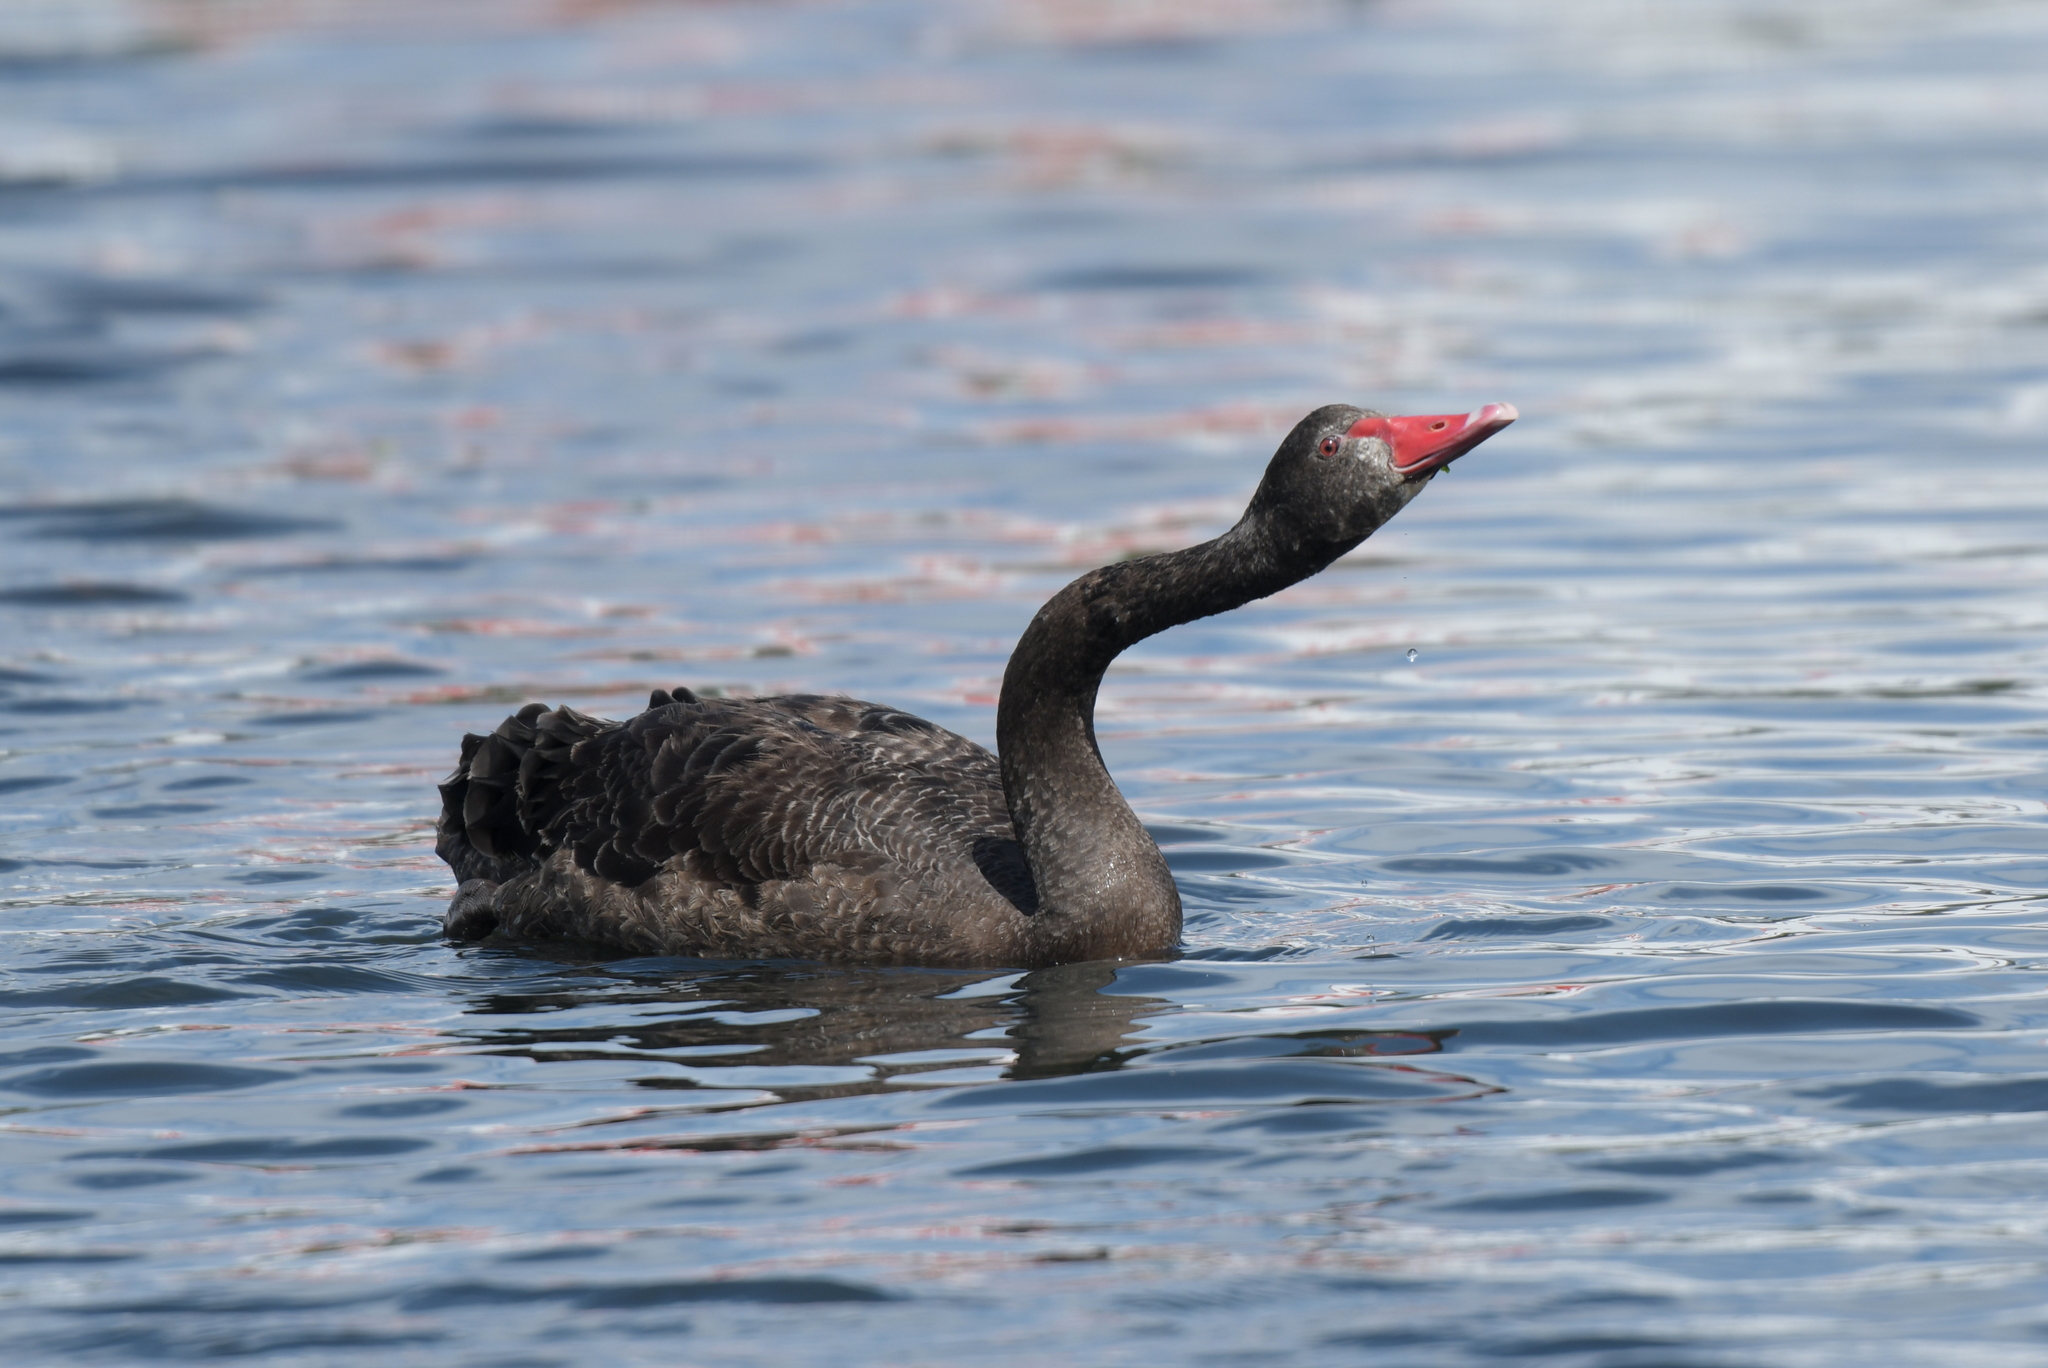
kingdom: Animalia
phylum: Chordata
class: Aves
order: Anseriformes
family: Anatidae
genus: Cygnus
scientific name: Cygnus atratus
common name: Black swan
